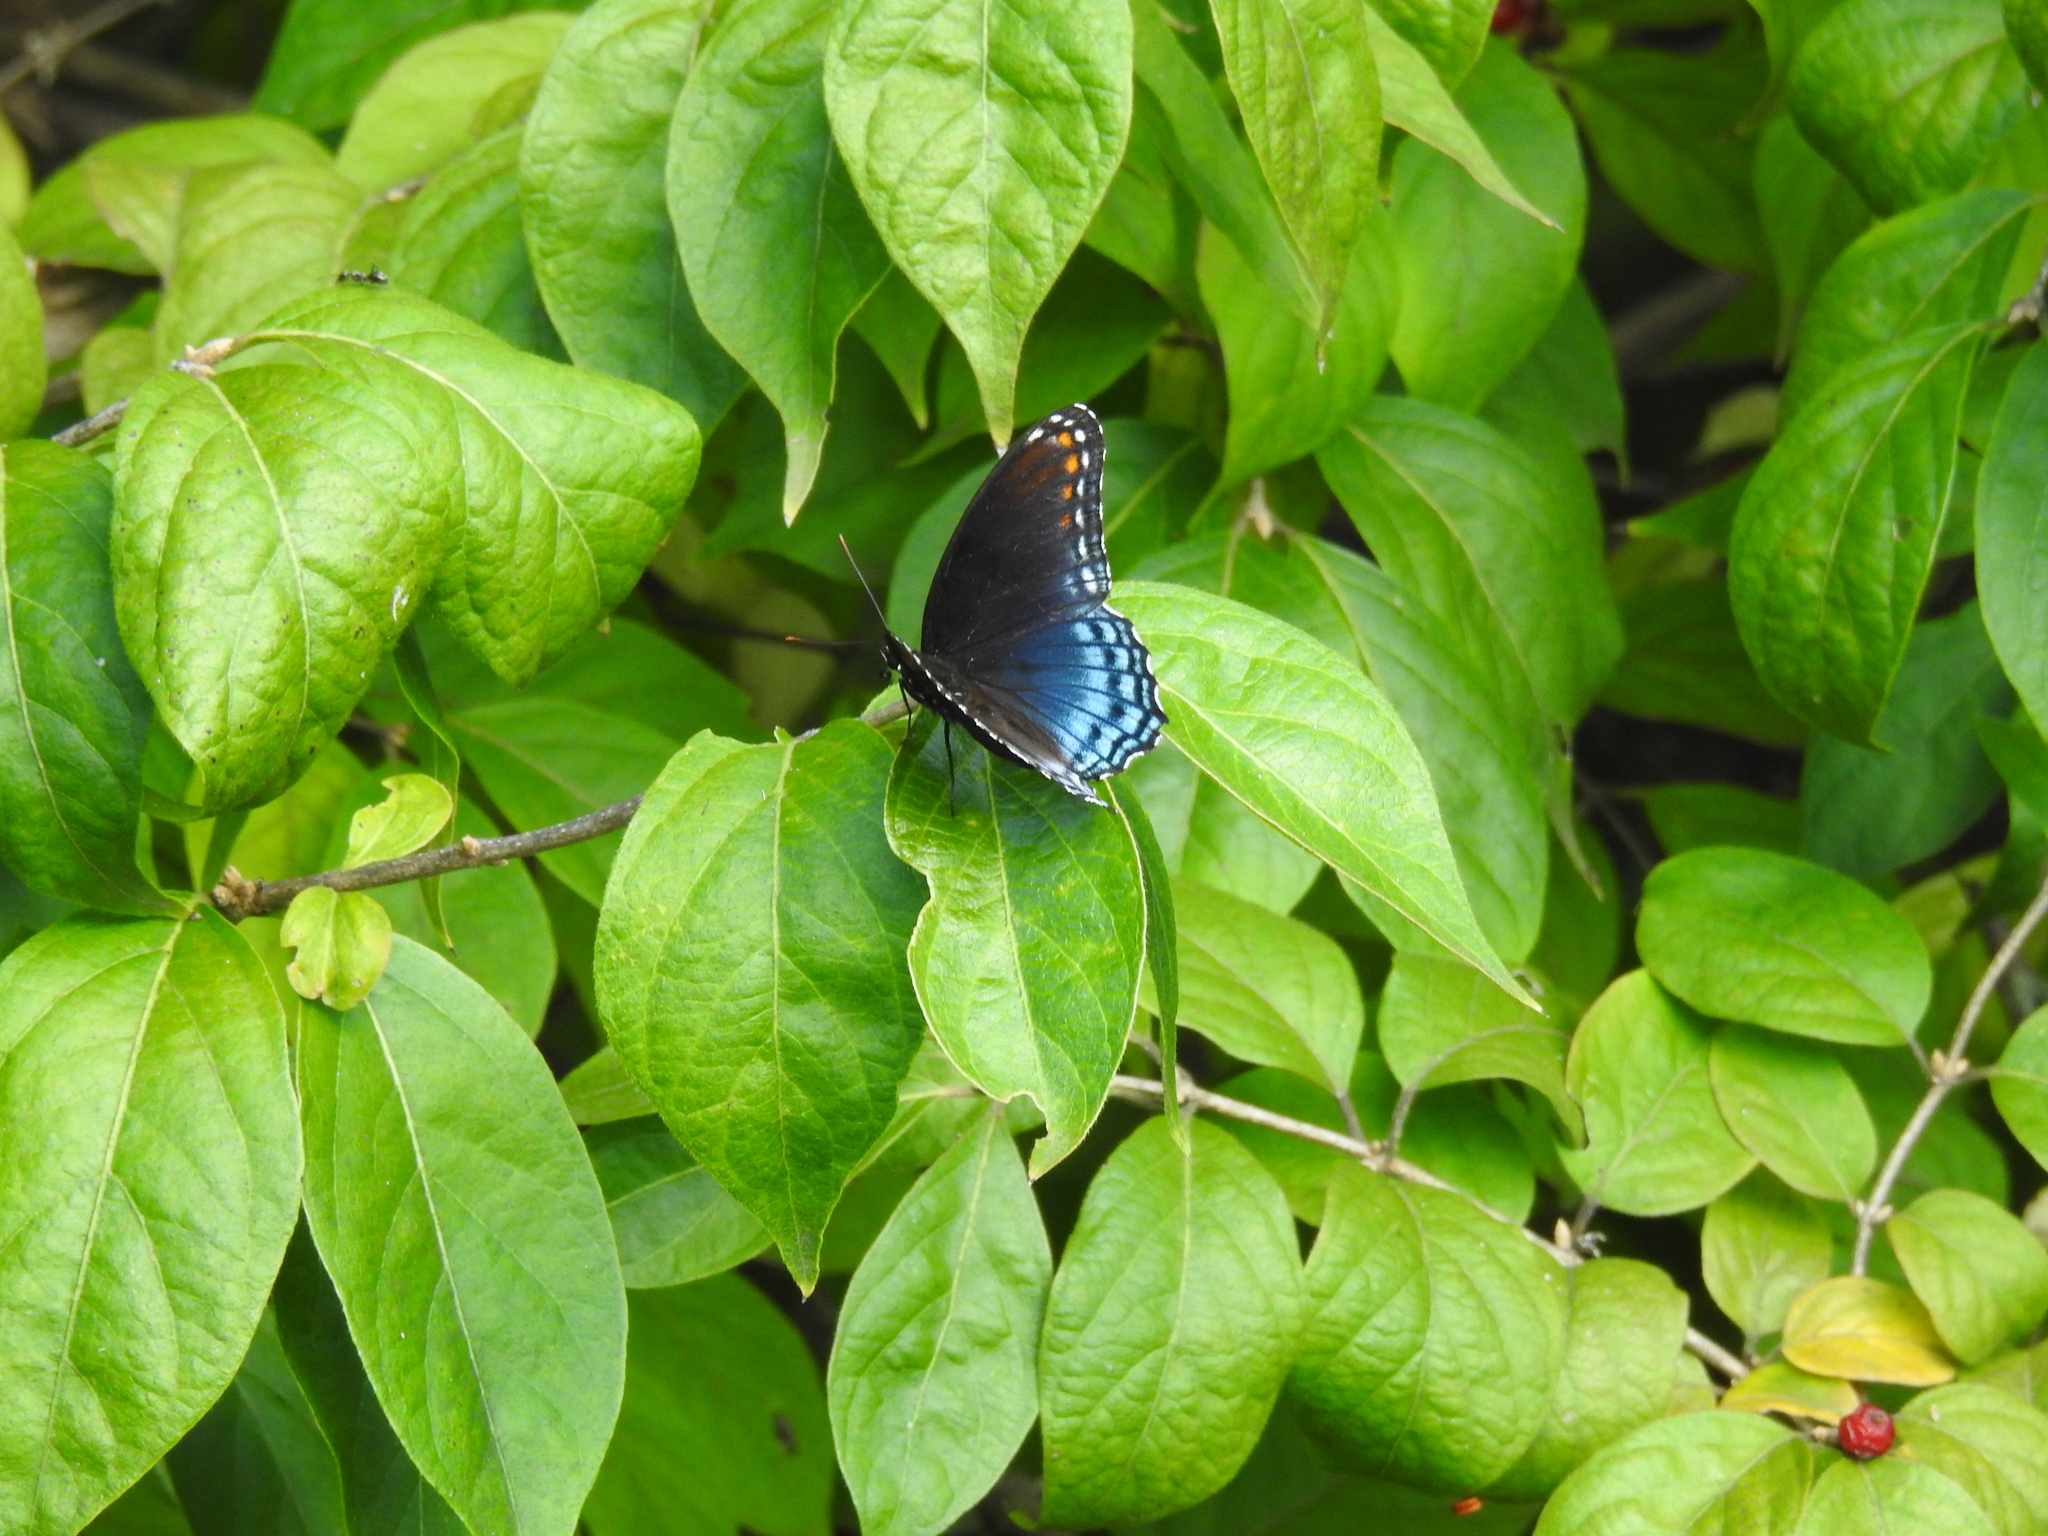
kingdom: Animalia
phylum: Arthropoda
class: Insecta
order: Lepidoptera
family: Nymphalidae
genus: Limenitis
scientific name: Limenitis astyanax
